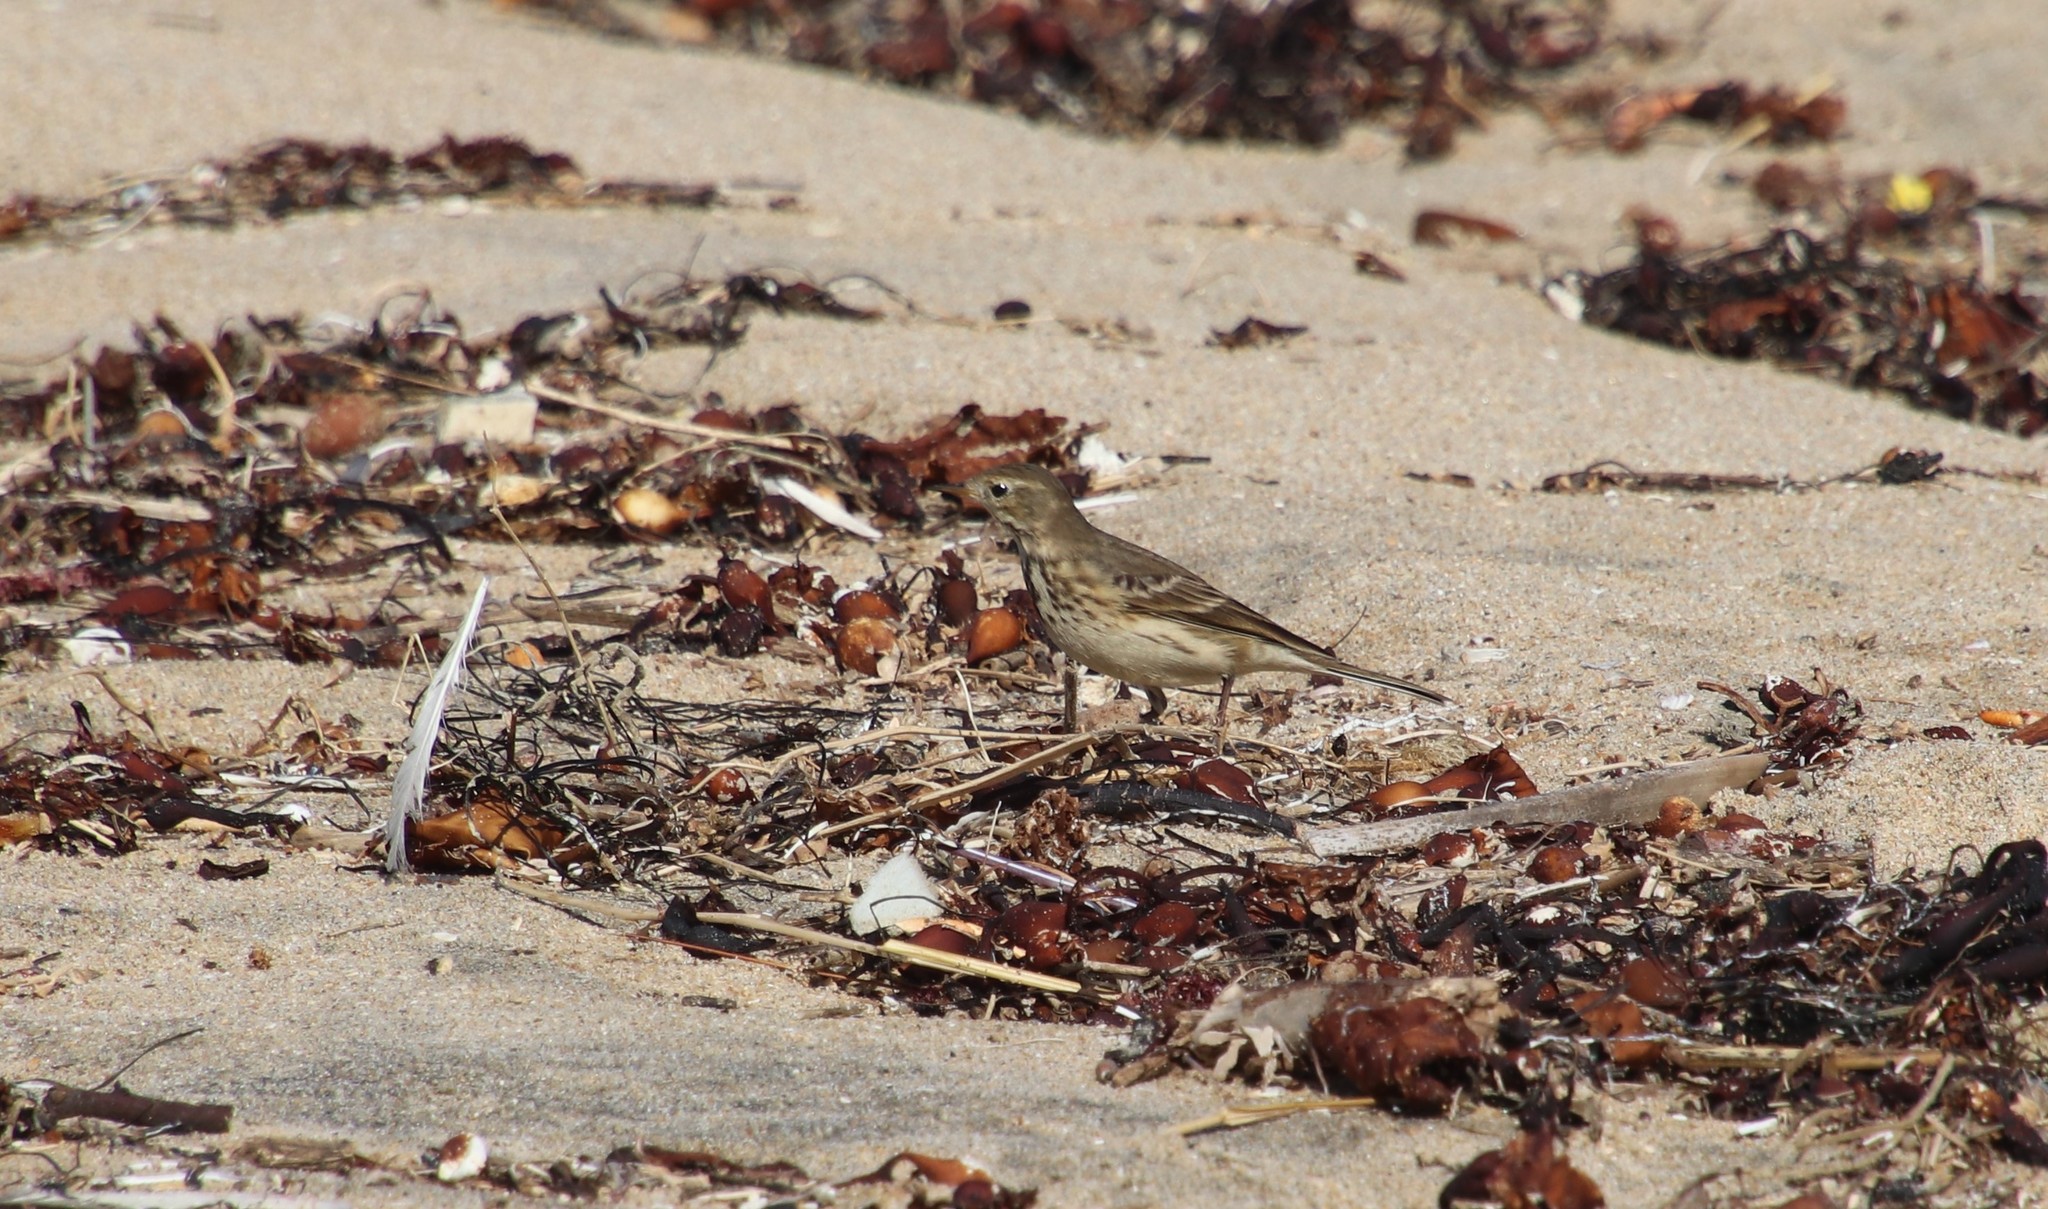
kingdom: Animalia
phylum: Chordata
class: Aves
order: Passeriformes
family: Motacillidae
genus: Anthus
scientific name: Anthus rubescens
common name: Buff-bellied pipit
